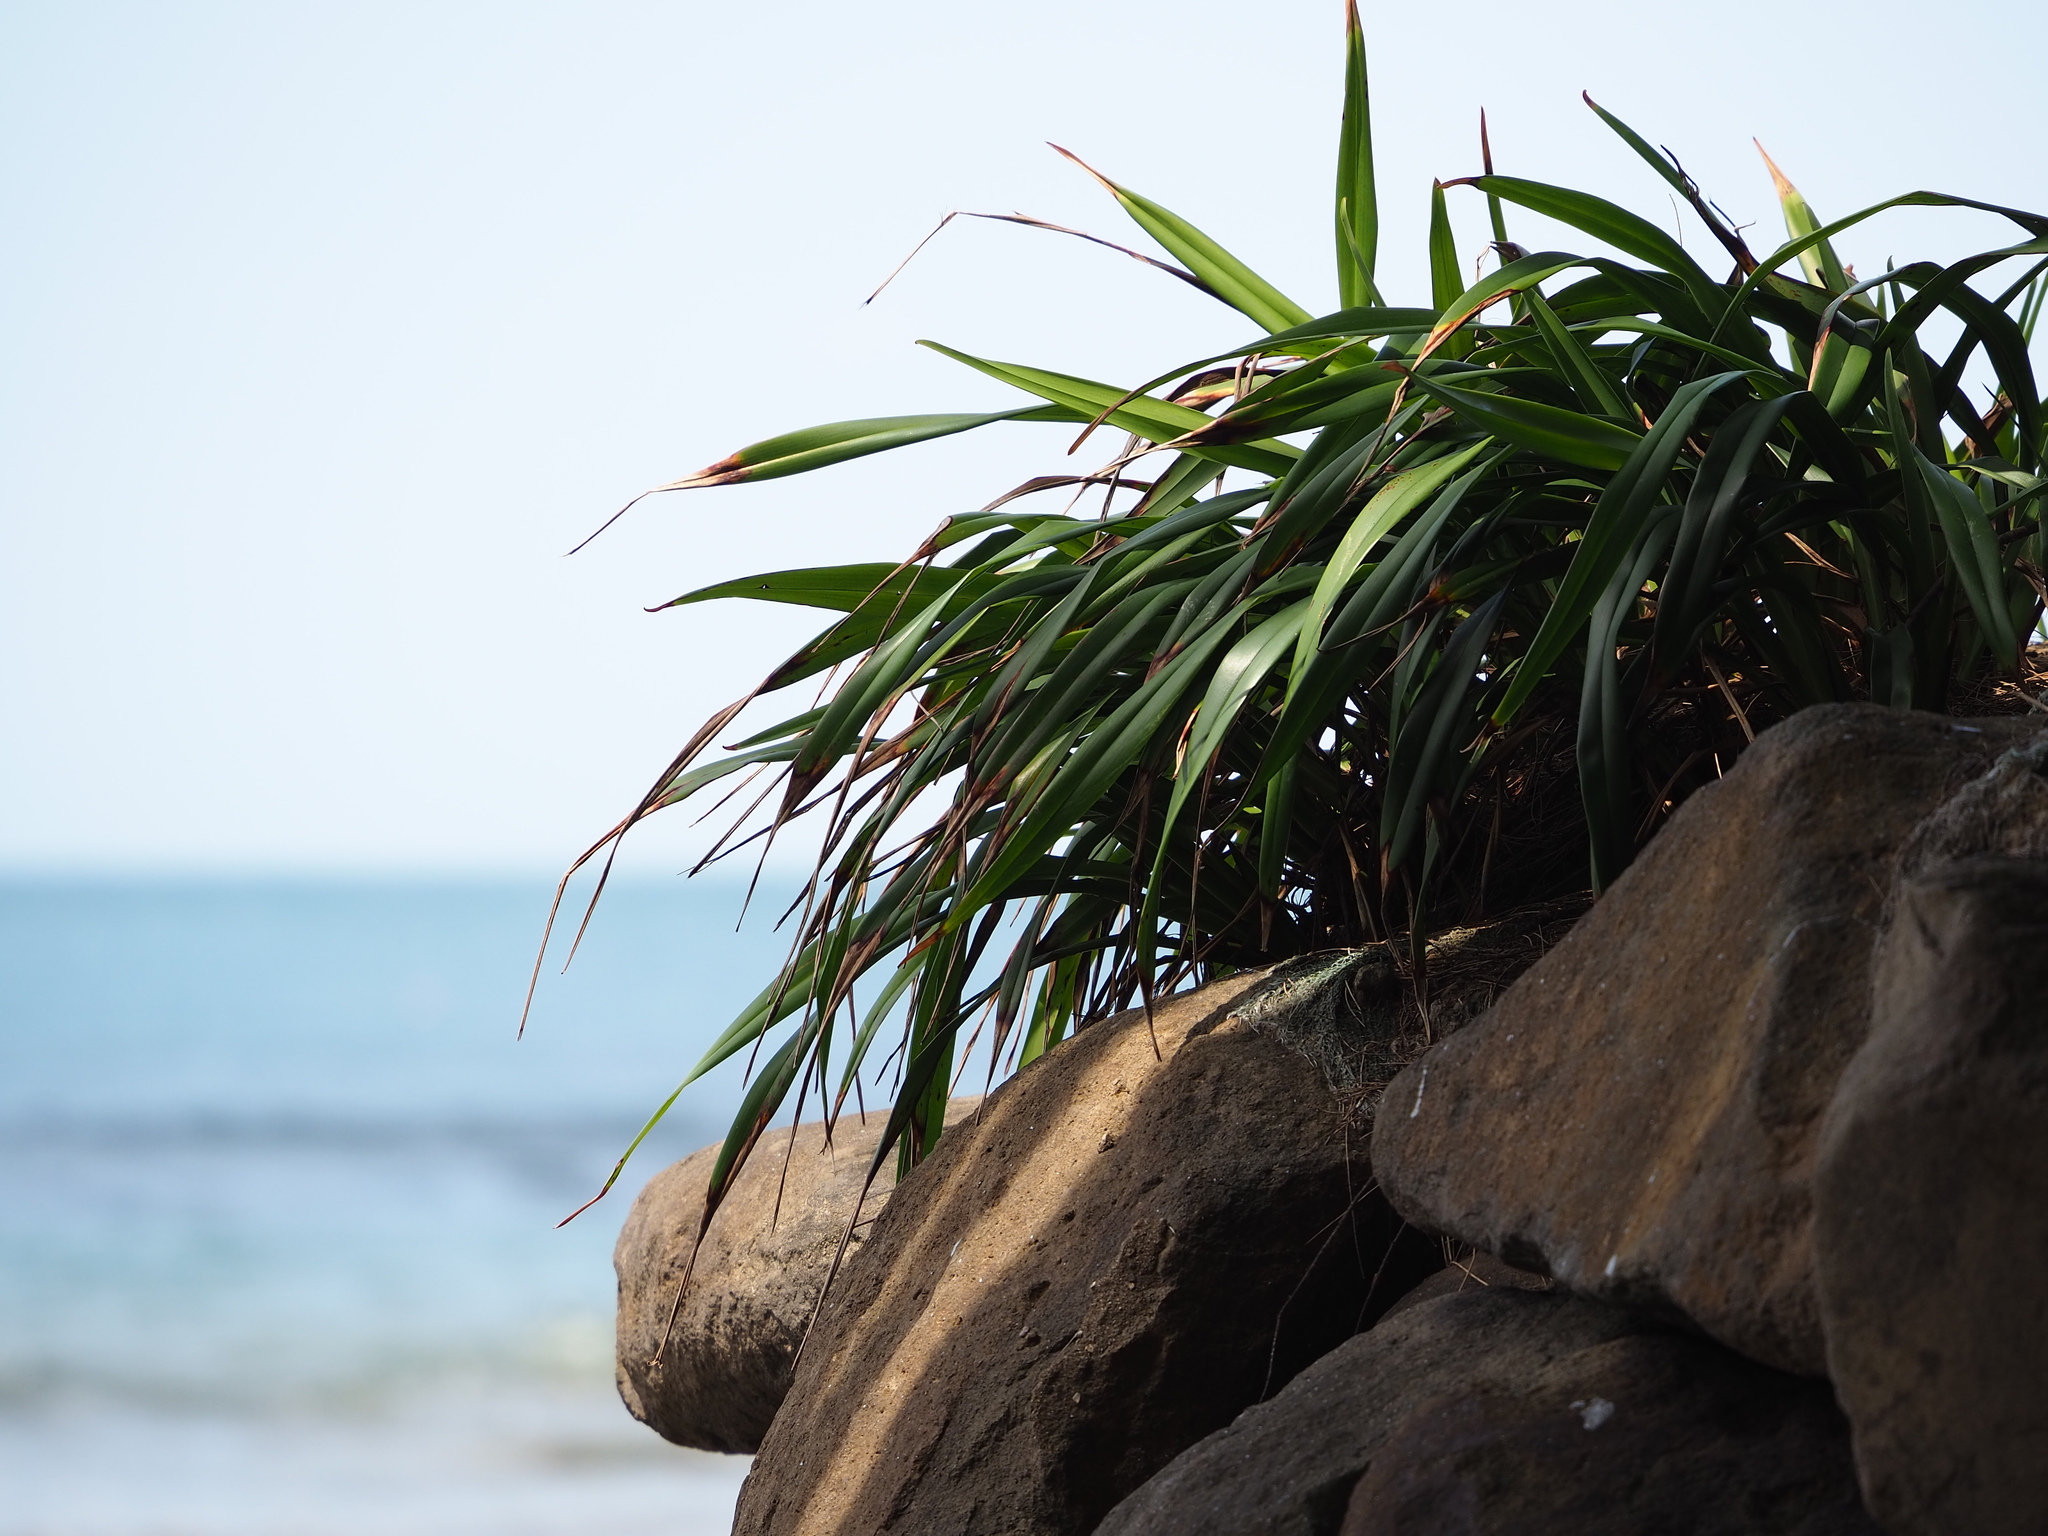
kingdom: Plantae
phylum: Tracheophyta
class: Liliopsida
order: Asparagales
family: Asphodelaceae
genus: Dianella
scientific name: Dianella ensifolia
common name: New zealand lilyplant
